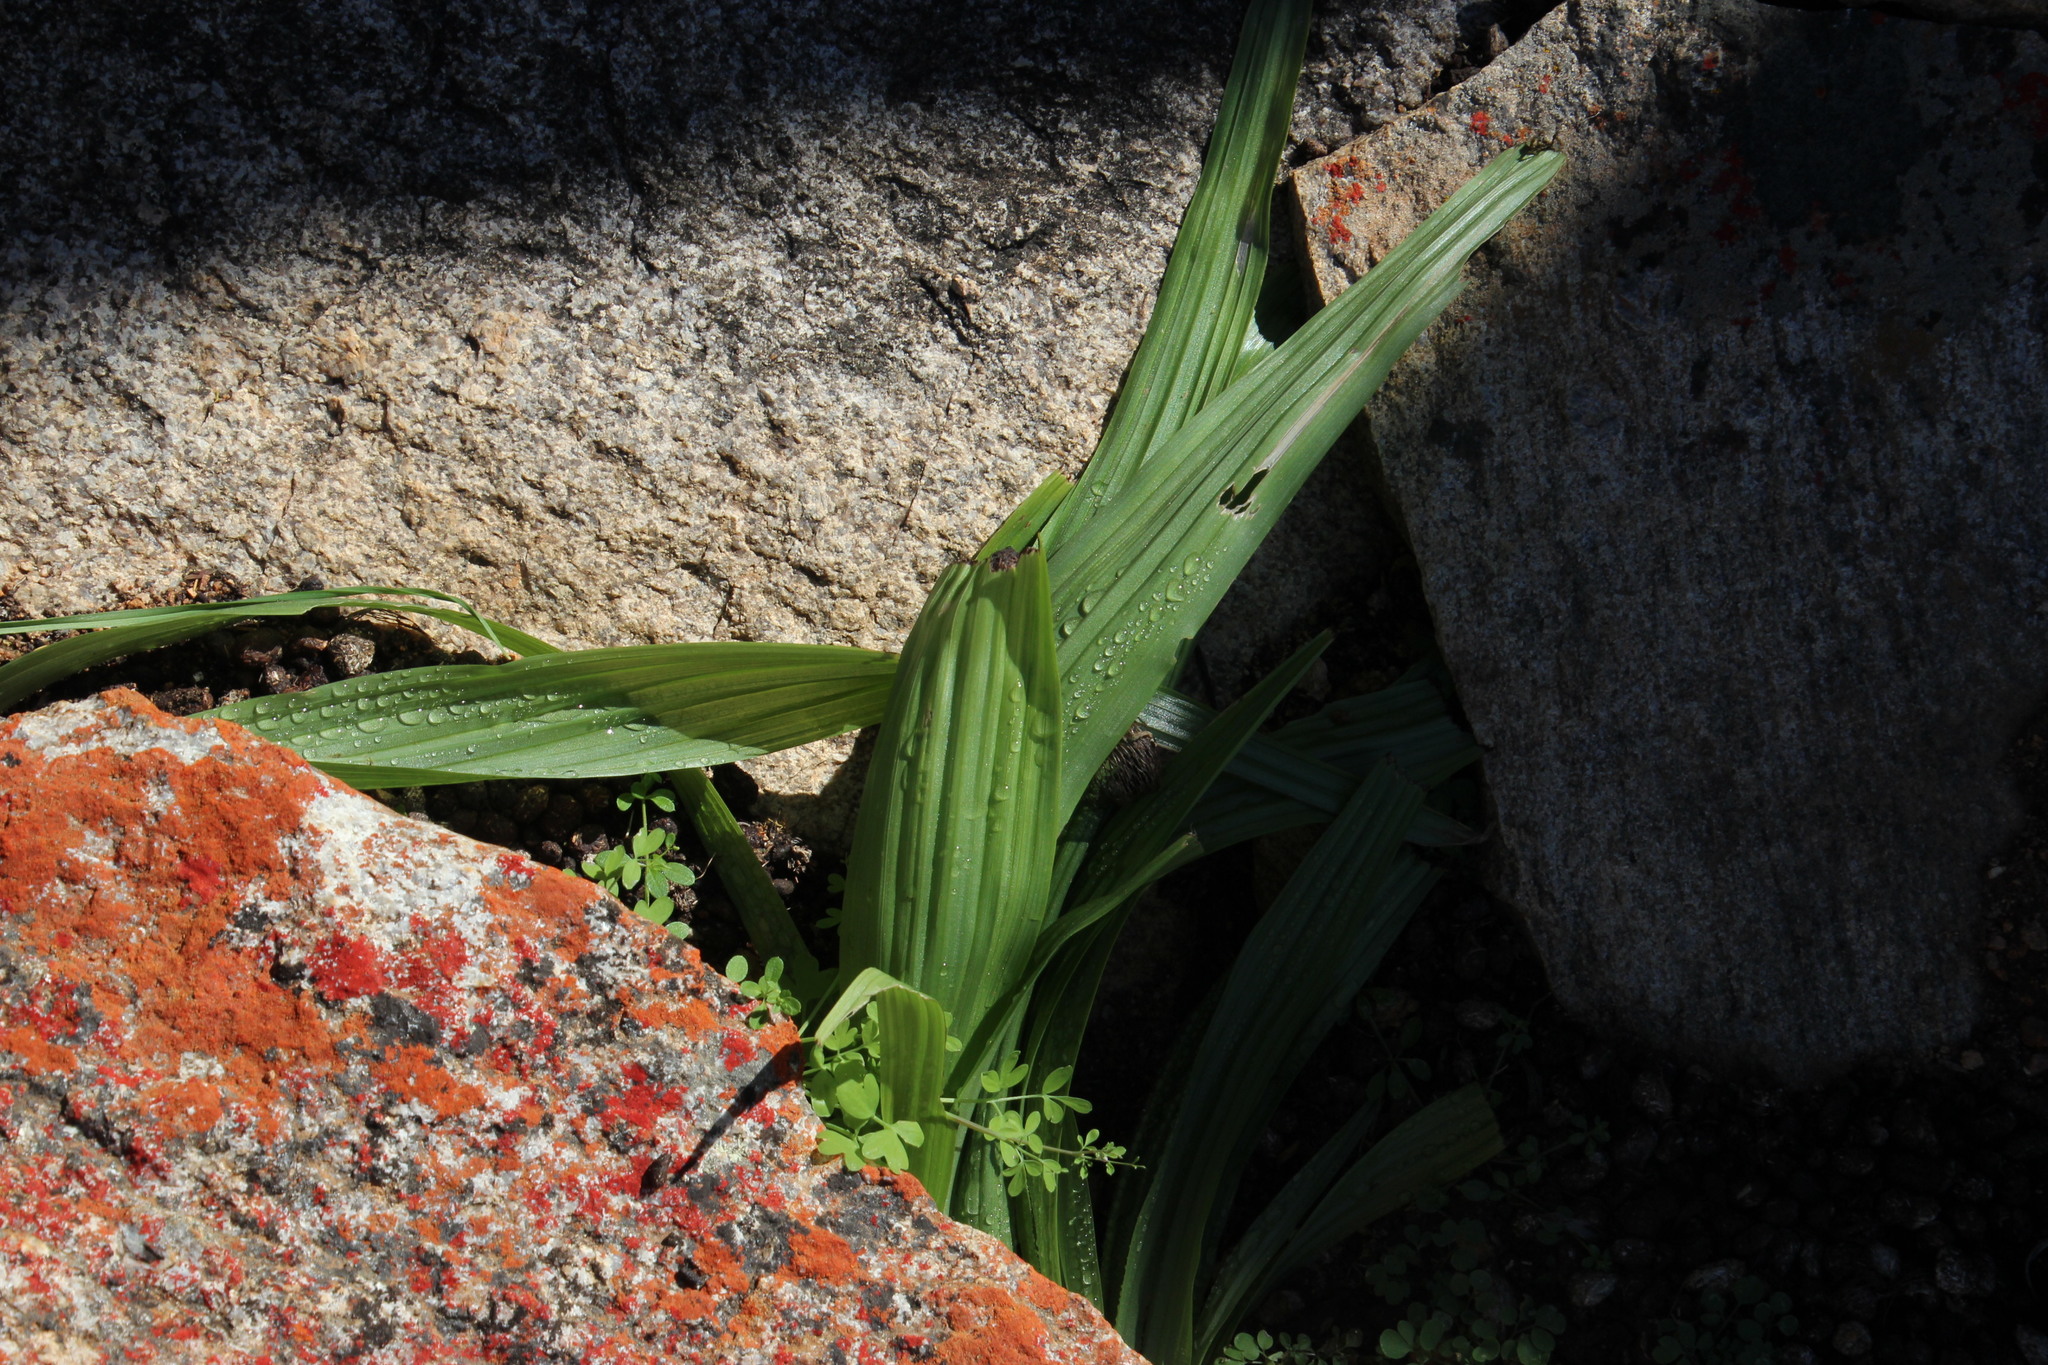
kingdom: Plantae
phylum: Tracheophyta
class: Liliopsida
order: Asparagales
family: Hypoxidaceae
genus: Empodium
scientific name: Empodium namaquensis
